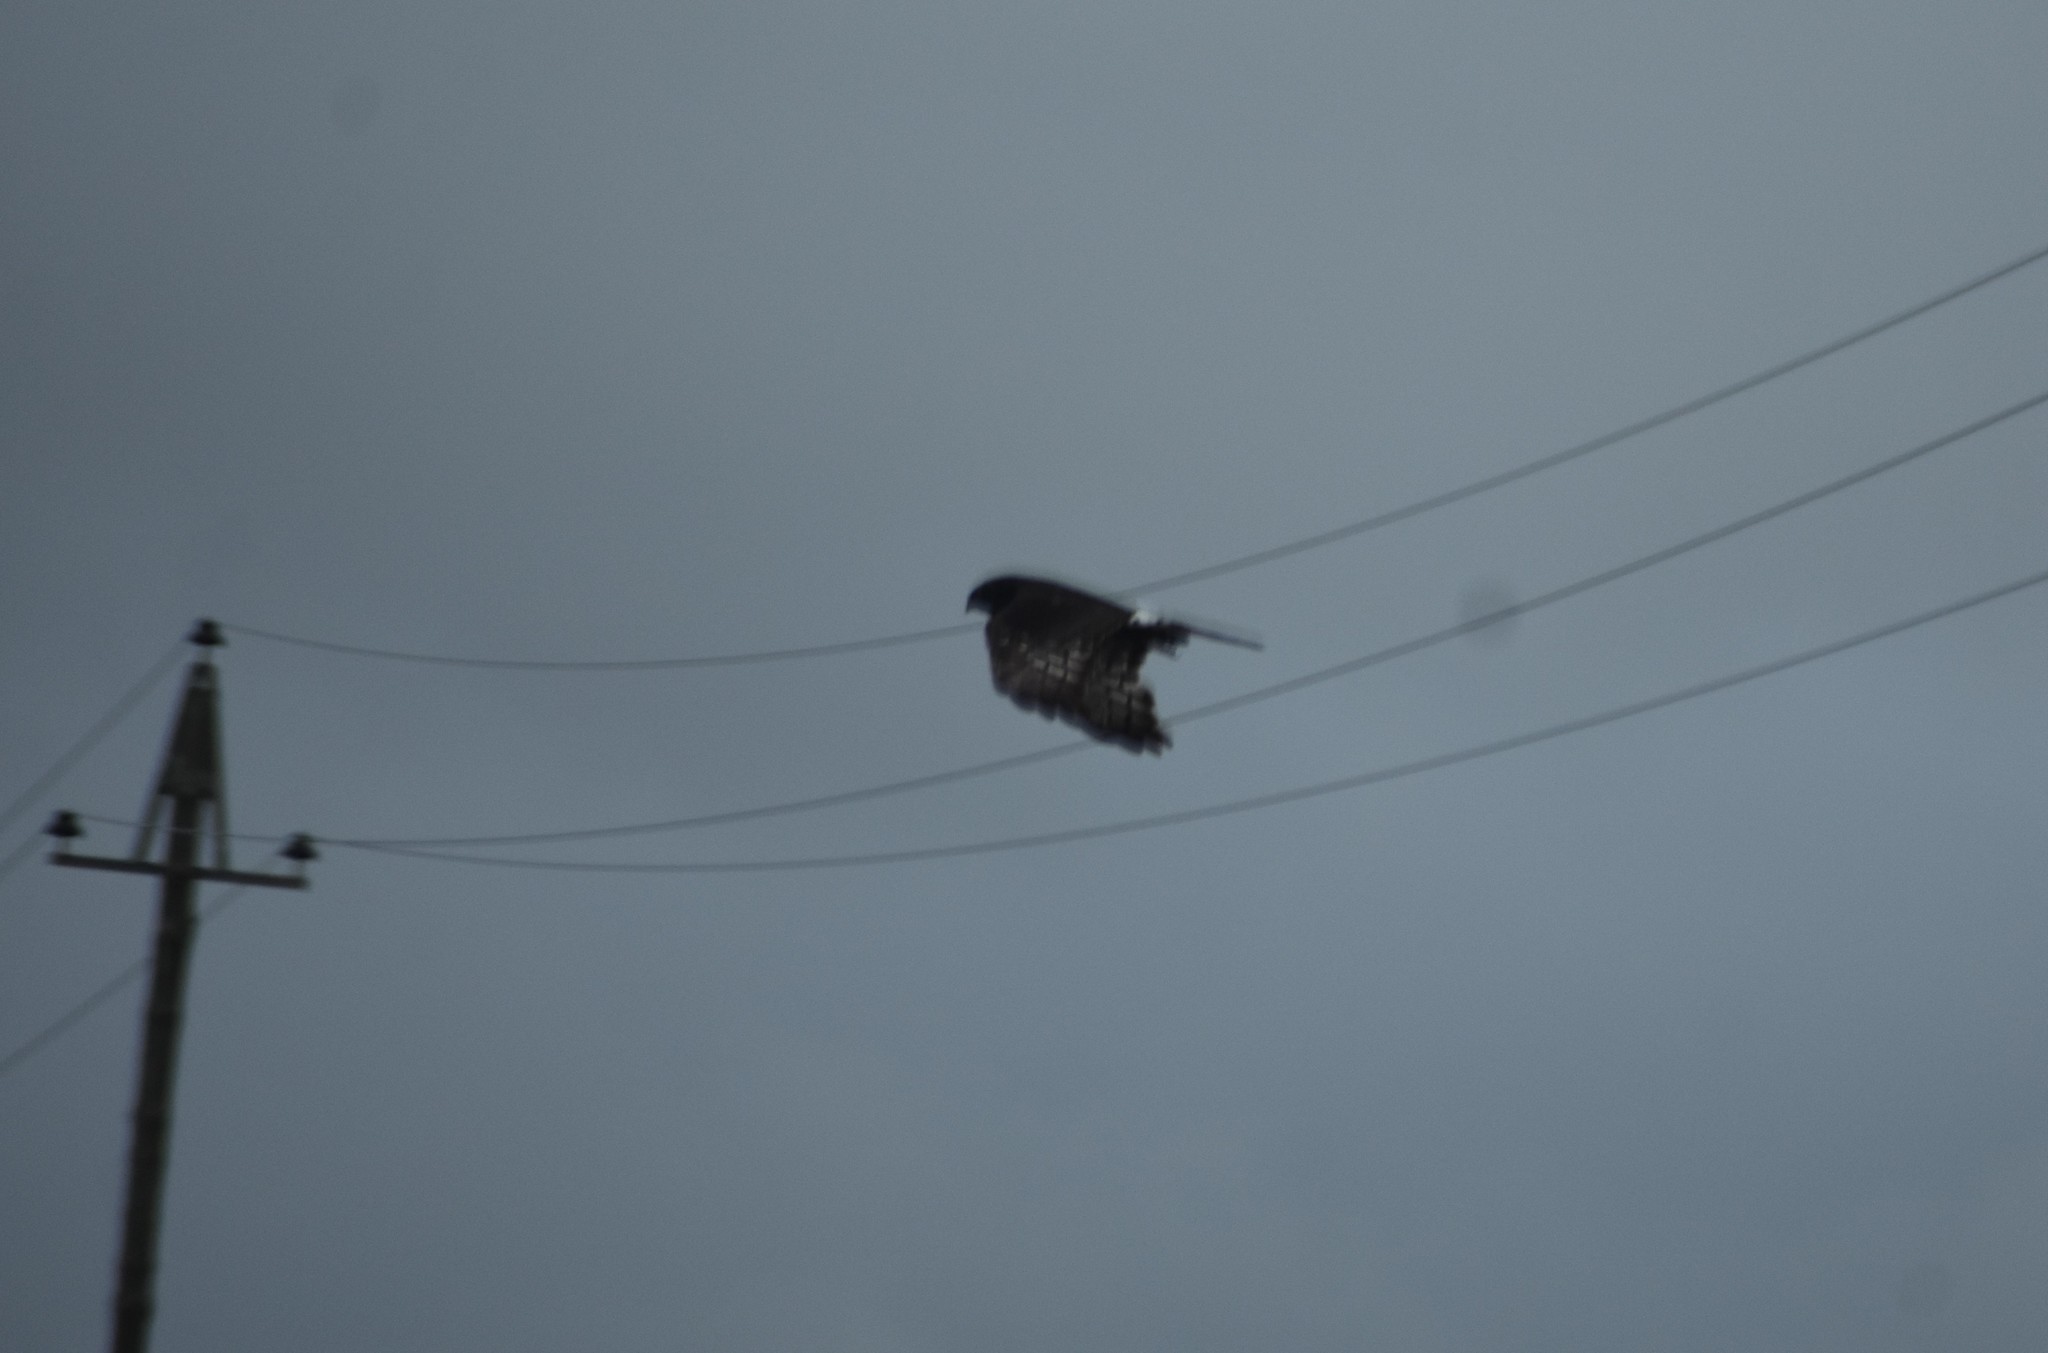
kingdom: Animalia
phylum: Chordata
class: Aves
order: Accipitriformes
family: Accipitridae
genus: Circus
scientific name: Circus maurus
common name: Black harrier
